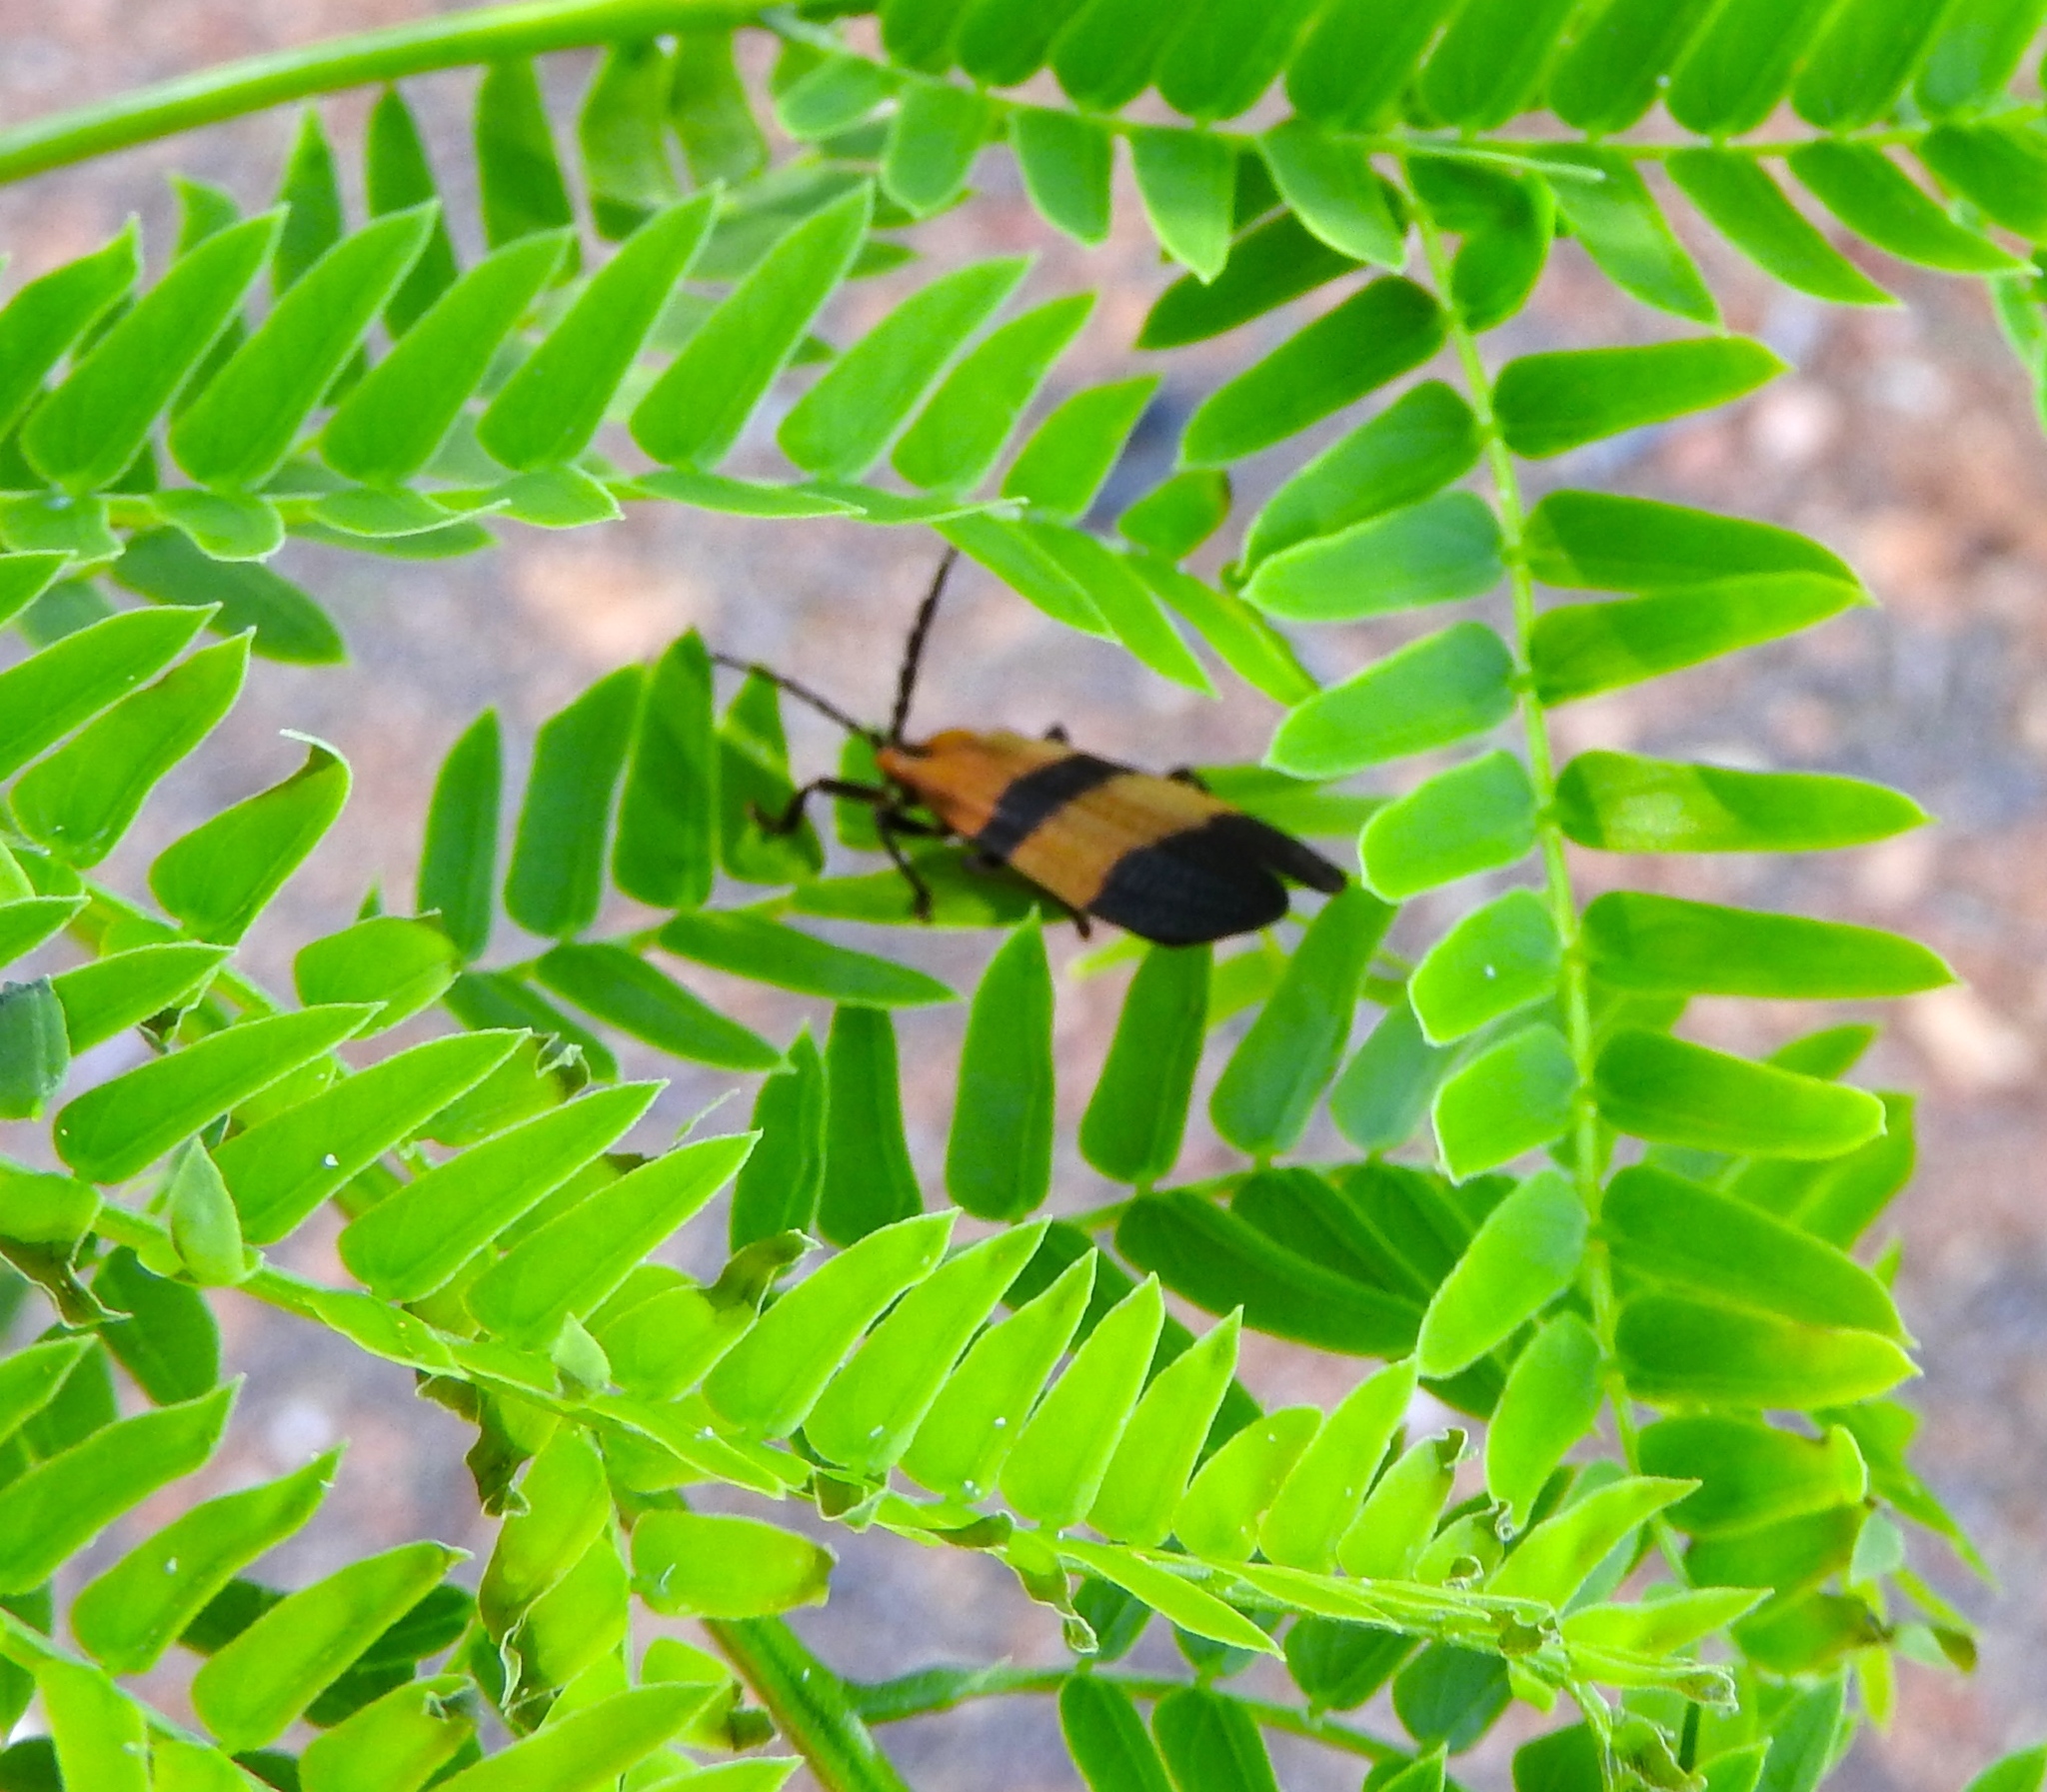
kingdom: Animalia
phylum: Arthropoda
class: Insecta
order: Coleoptera
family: Lycidae
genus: Calopteron
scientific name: Calopteron
